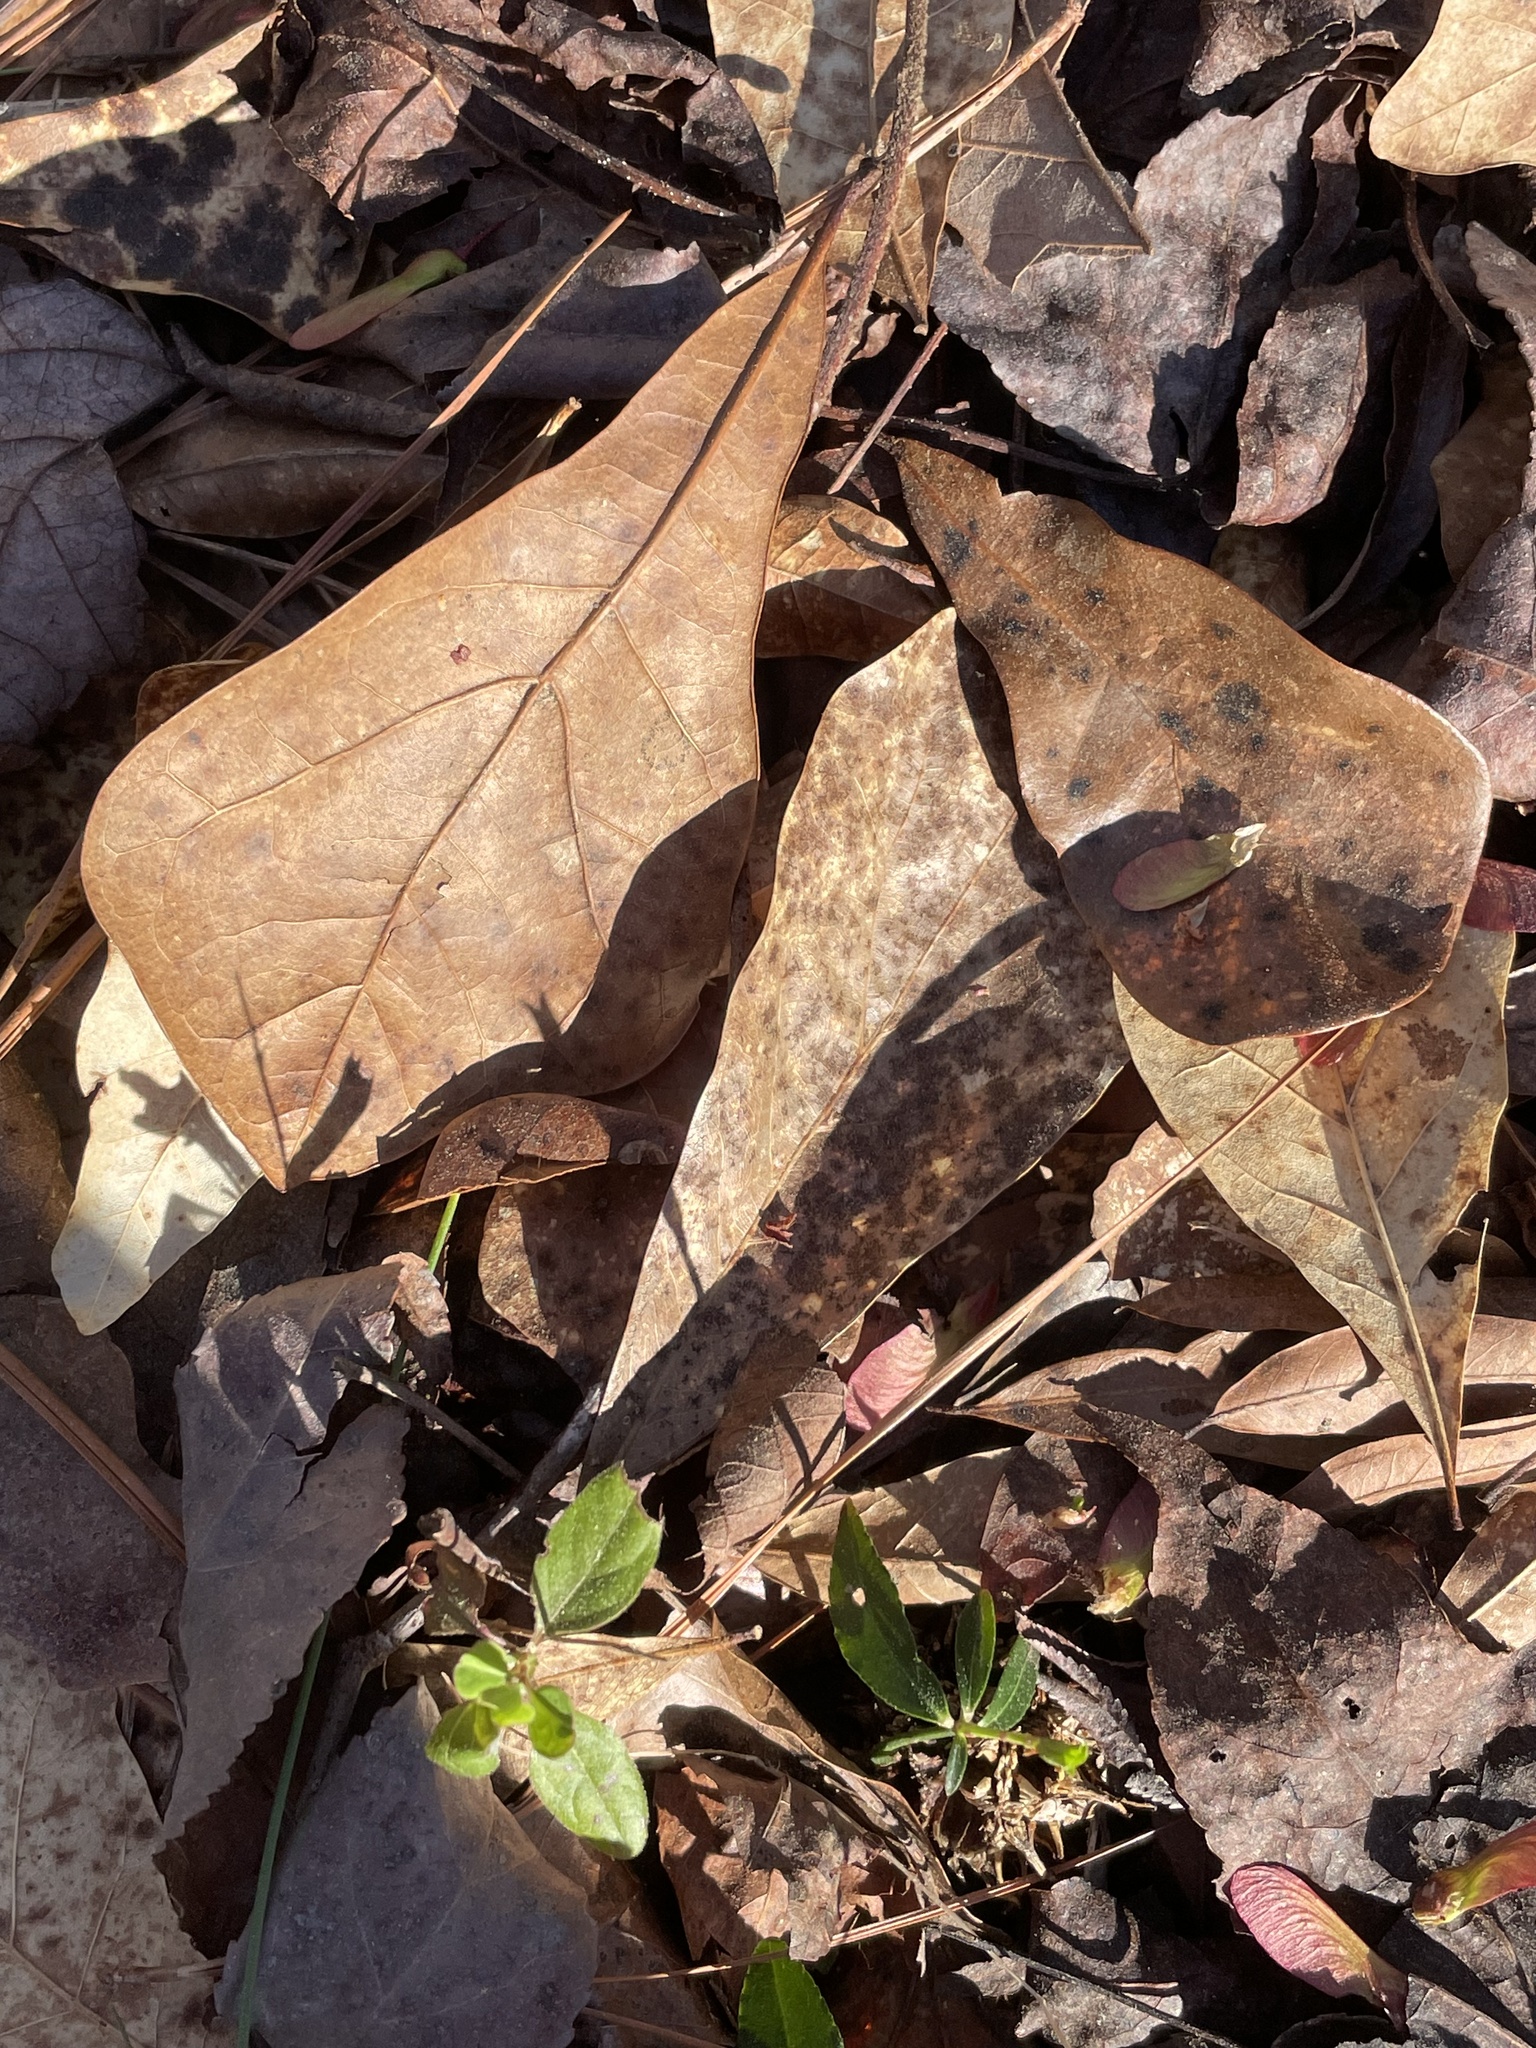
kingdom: Plantae
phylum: Tracheophyta
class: Magnoliopsida
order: Fagales
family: Fagaceae
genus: Quercus
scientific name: Quercus nigra
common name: Water oak
